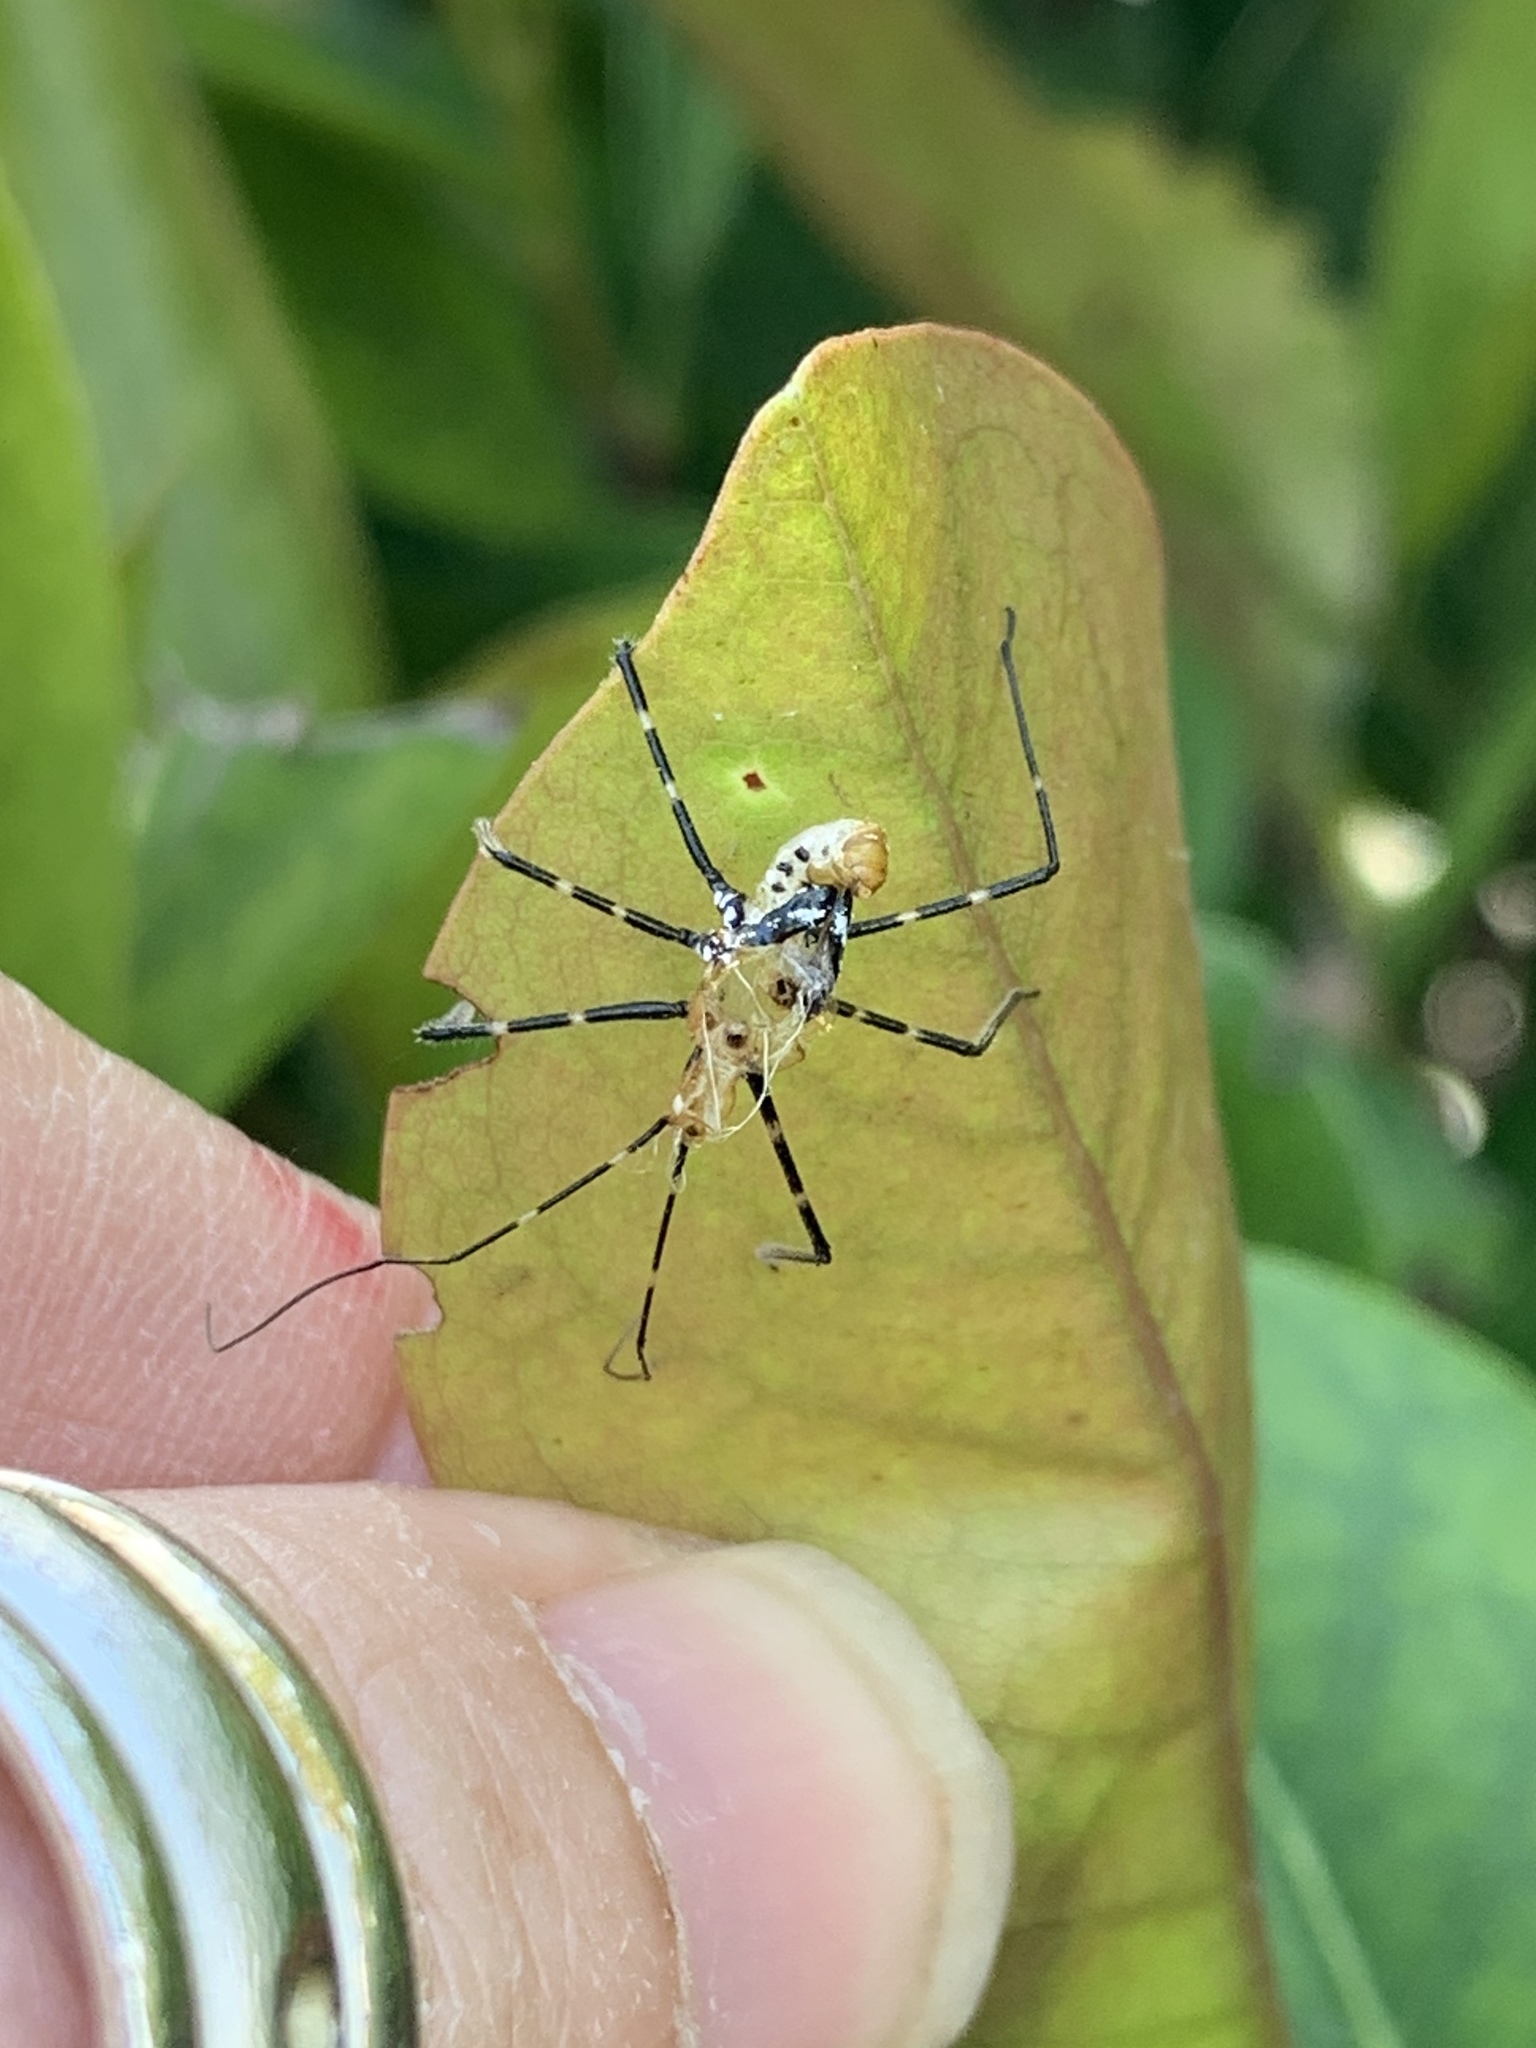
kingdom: Animalia
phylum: Arthropoda
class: Insecta
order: Hemiptera
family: Reduviidae
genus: Zelus
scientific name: Zelus longipes
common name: Milkweed assassin bug
